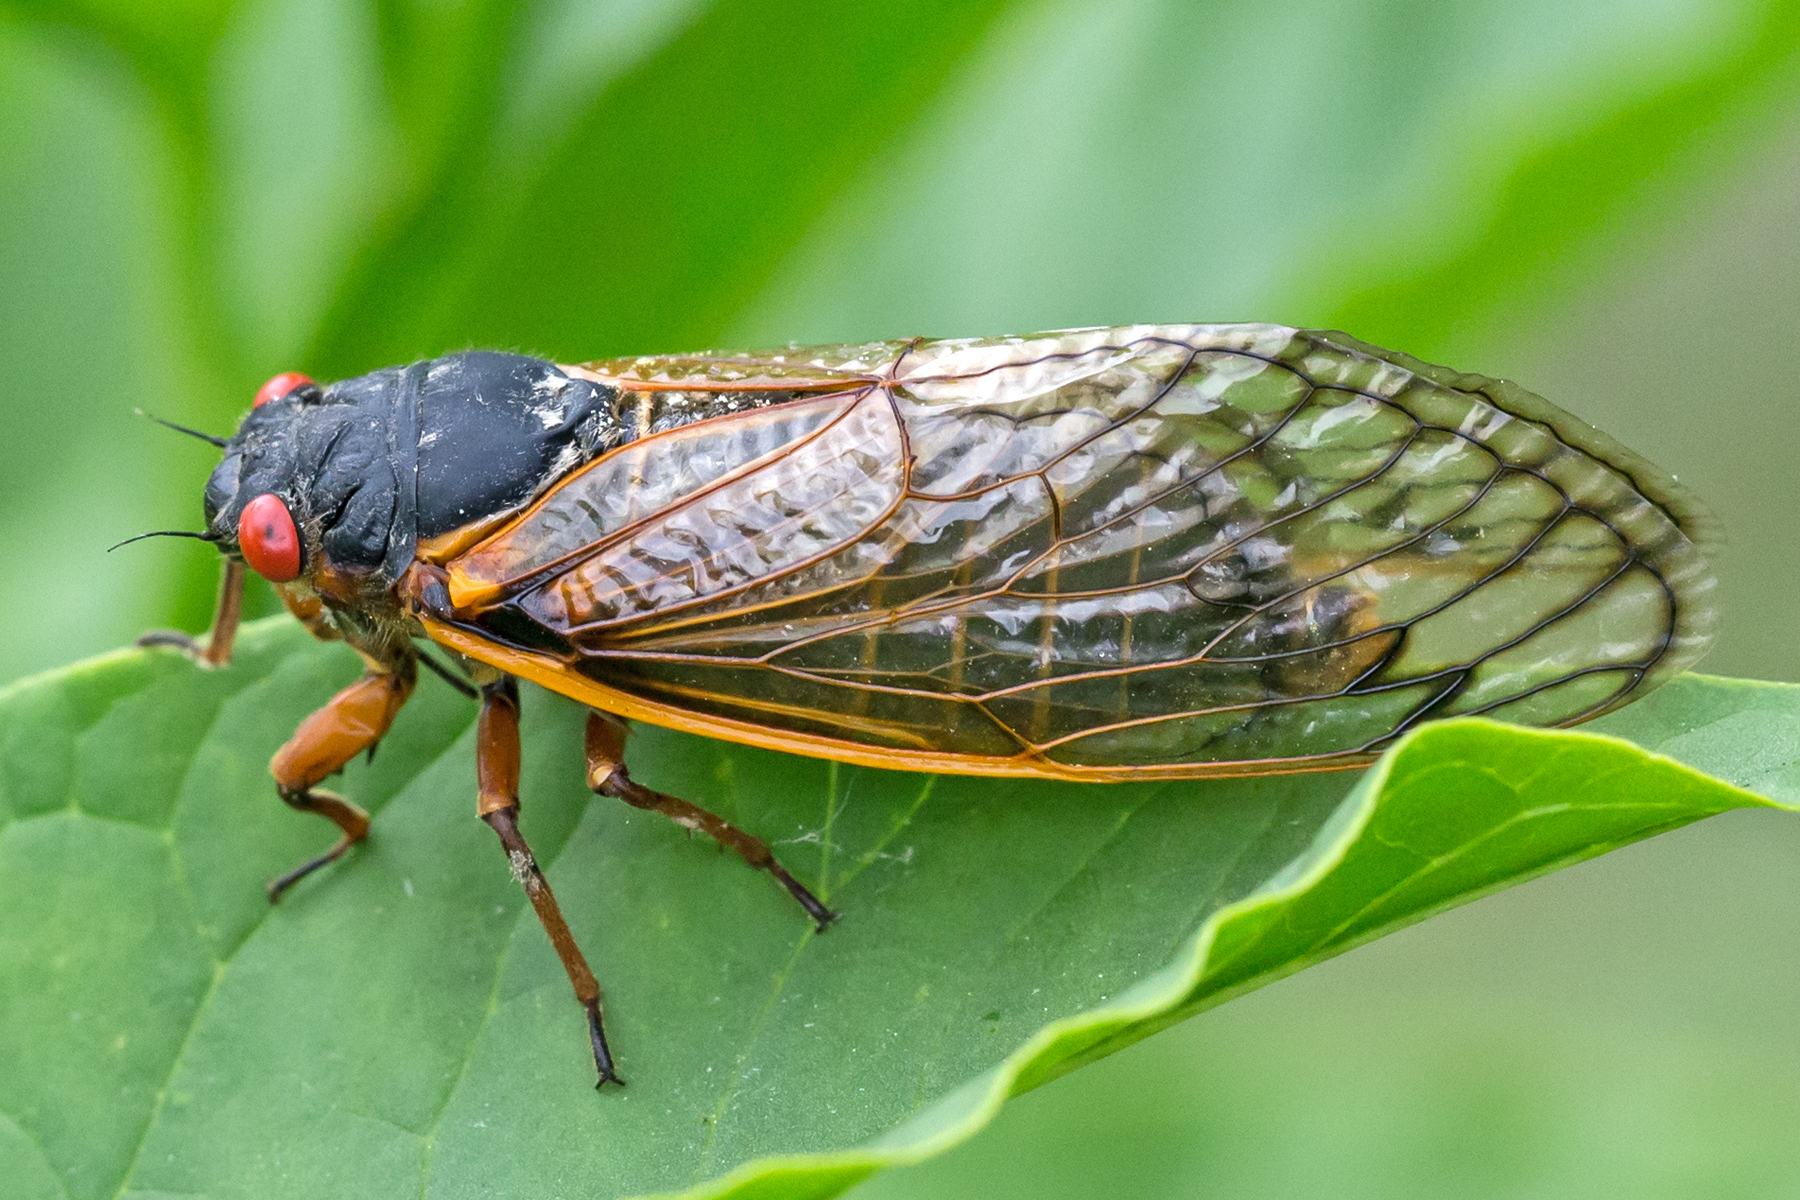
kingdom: Animalia
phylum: Arthropoda
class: Insecta
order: Hemiptera
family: Cicadidae
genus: Magicicada
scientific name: Magicicada septendecim
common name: Periodical cicada
